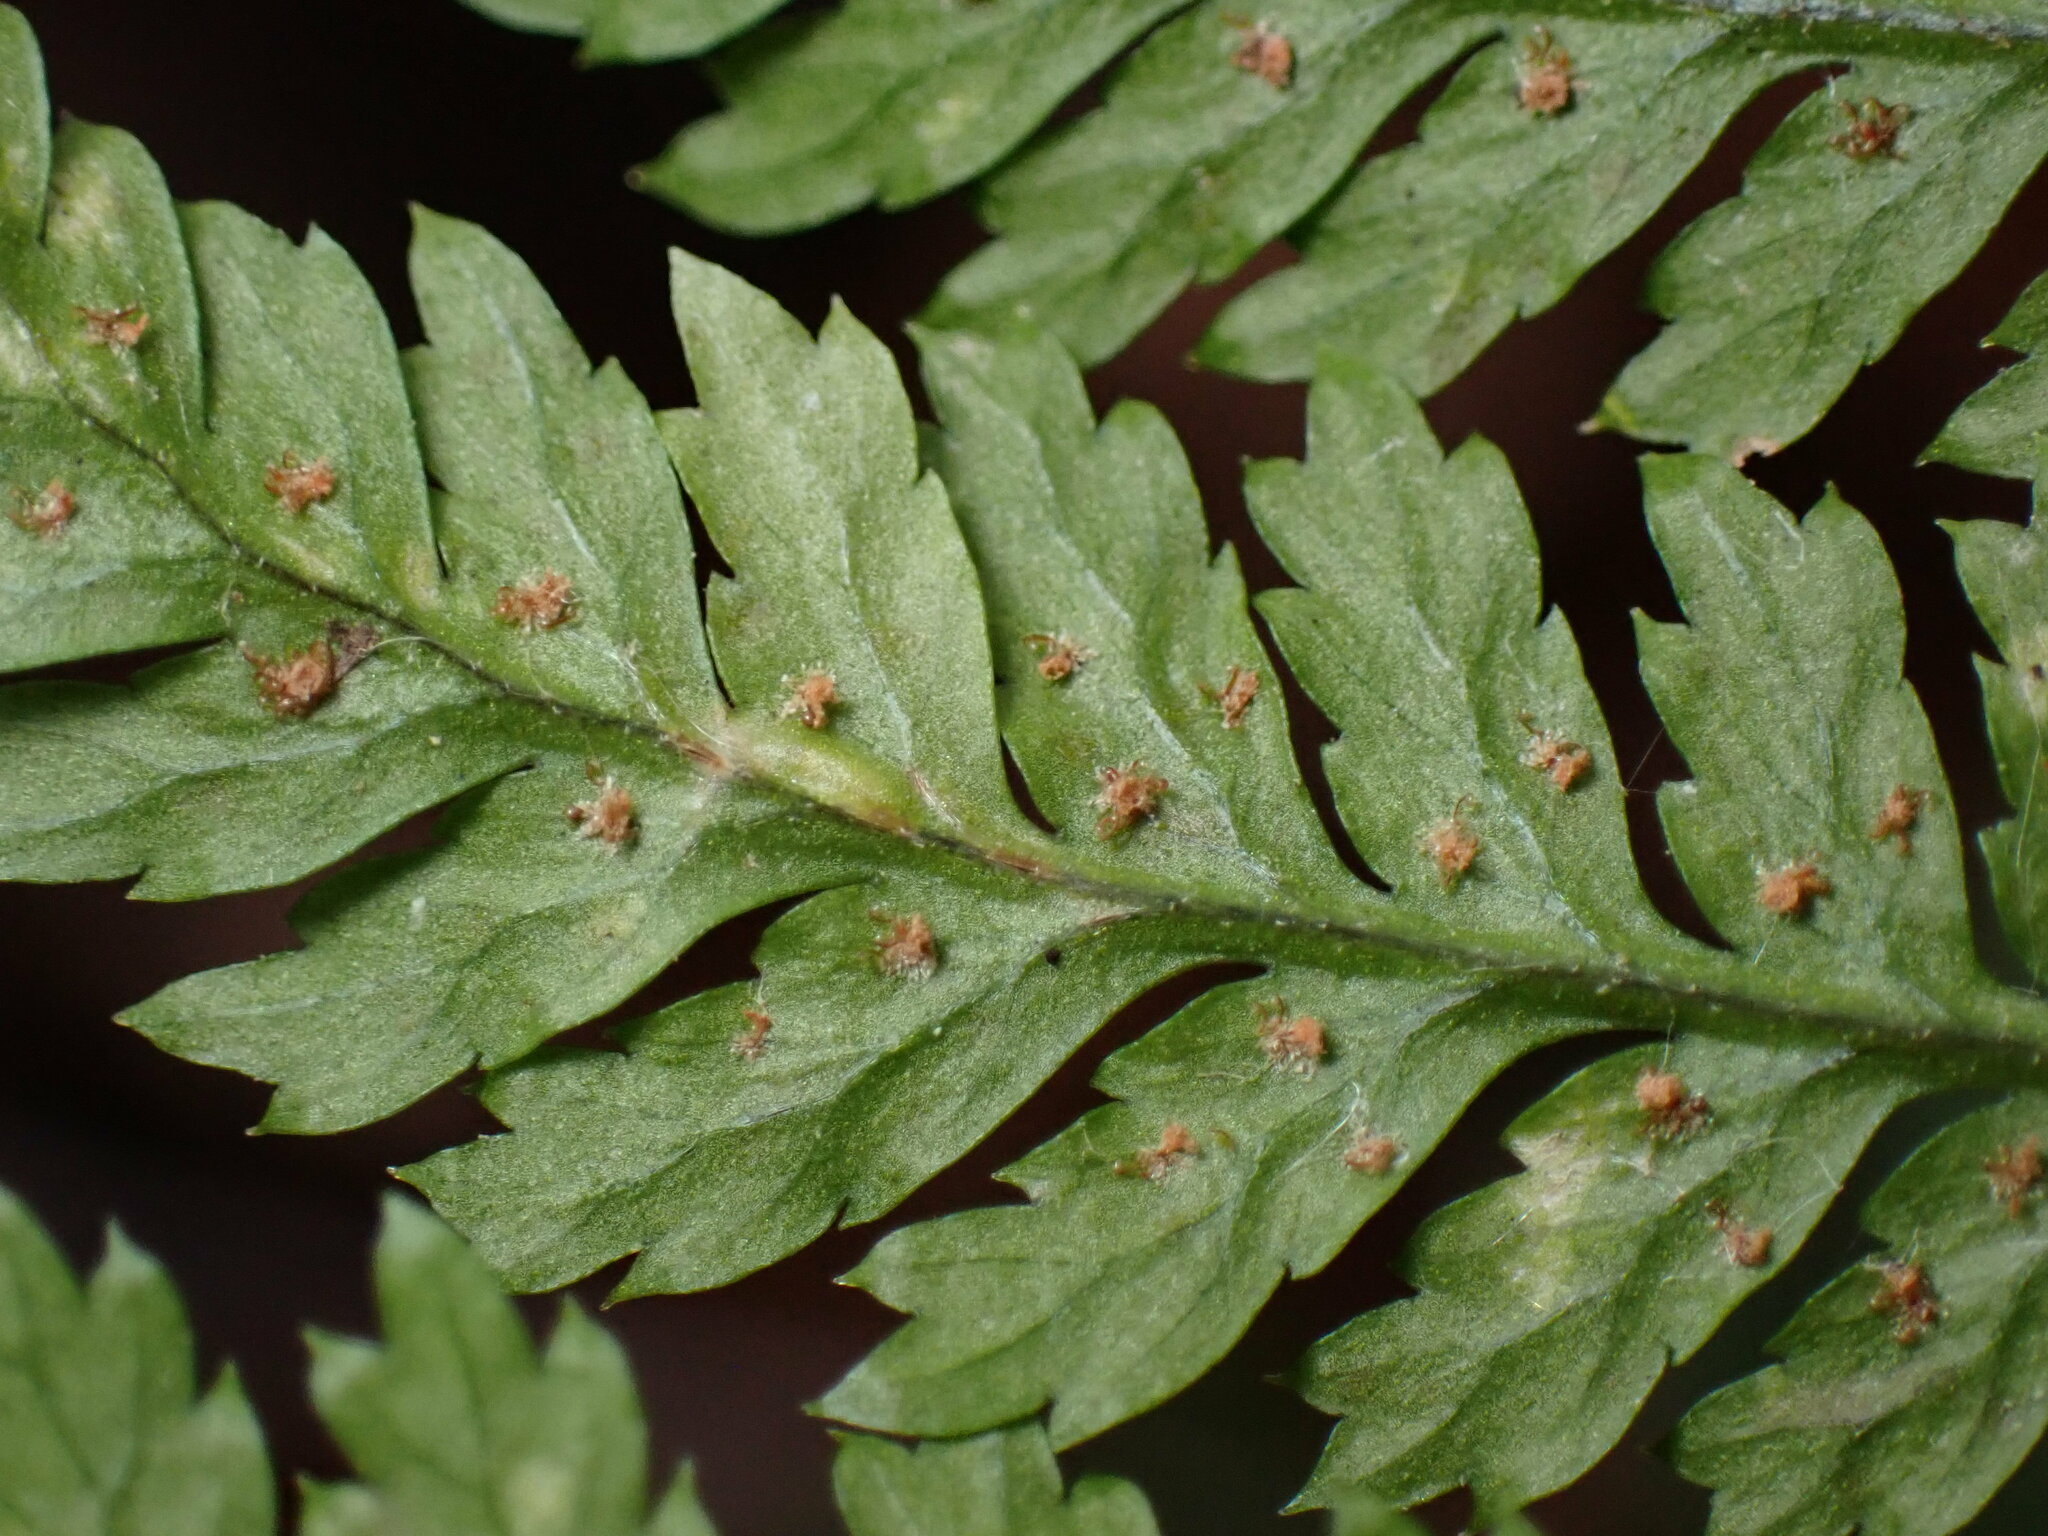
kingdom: Plantae
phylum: Tracheophyta
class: Polypodiopsida
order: Polypodiales
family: Dryopteridaceae
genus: Dryopteris
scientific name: Dryopteris intermedia
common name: Evergreen wood fern
